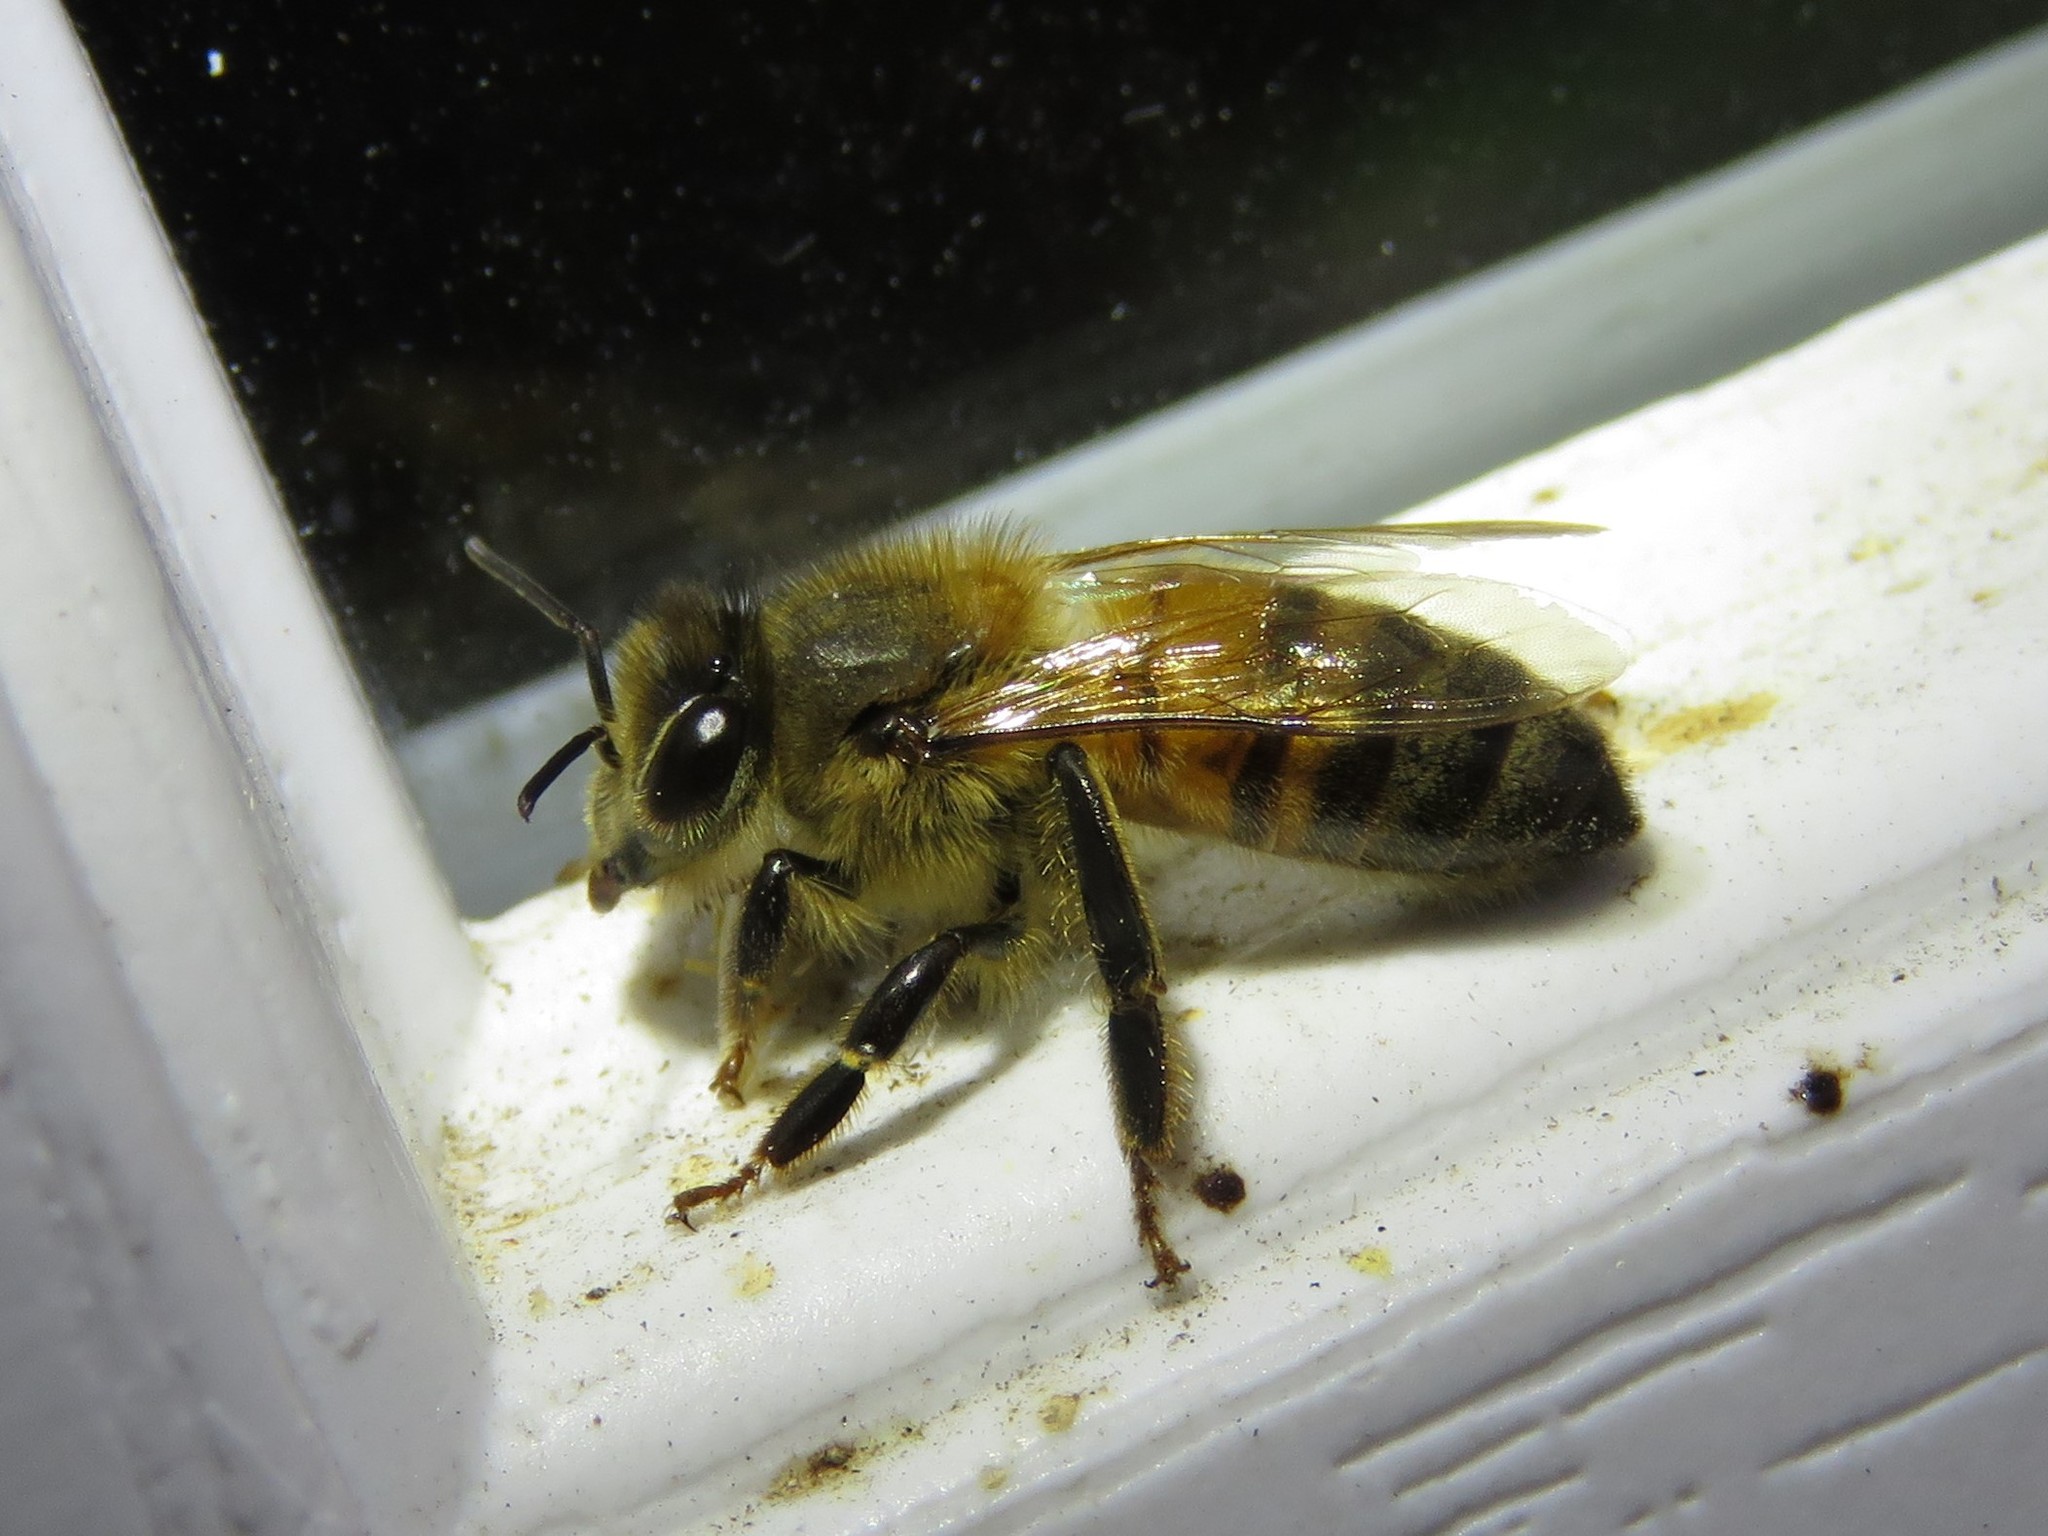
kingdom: Animalia
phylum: Arthropoda
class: Insecta
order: Hymenoptera
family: Apidae
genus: Apis
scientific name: Apis mellifera
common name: Honey bee
